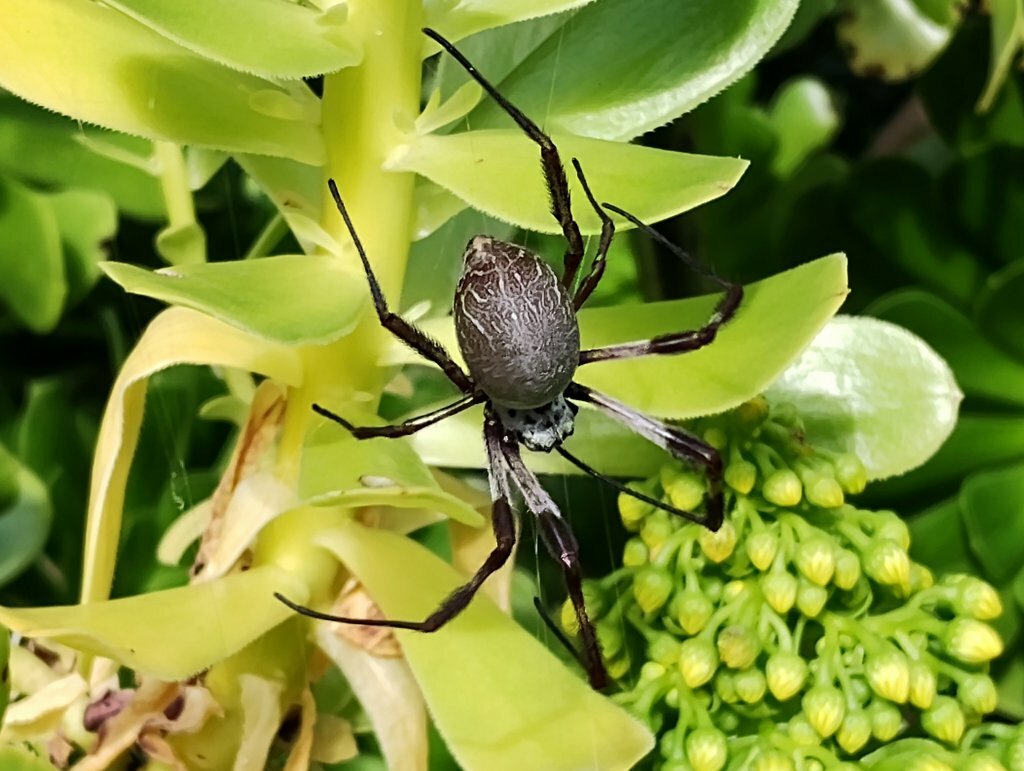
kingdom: Animalia
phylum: Arthropoda
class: Arachnida
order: Araneae
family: Araneidae
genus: Trichonephila
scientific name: Trichonephila edulis
